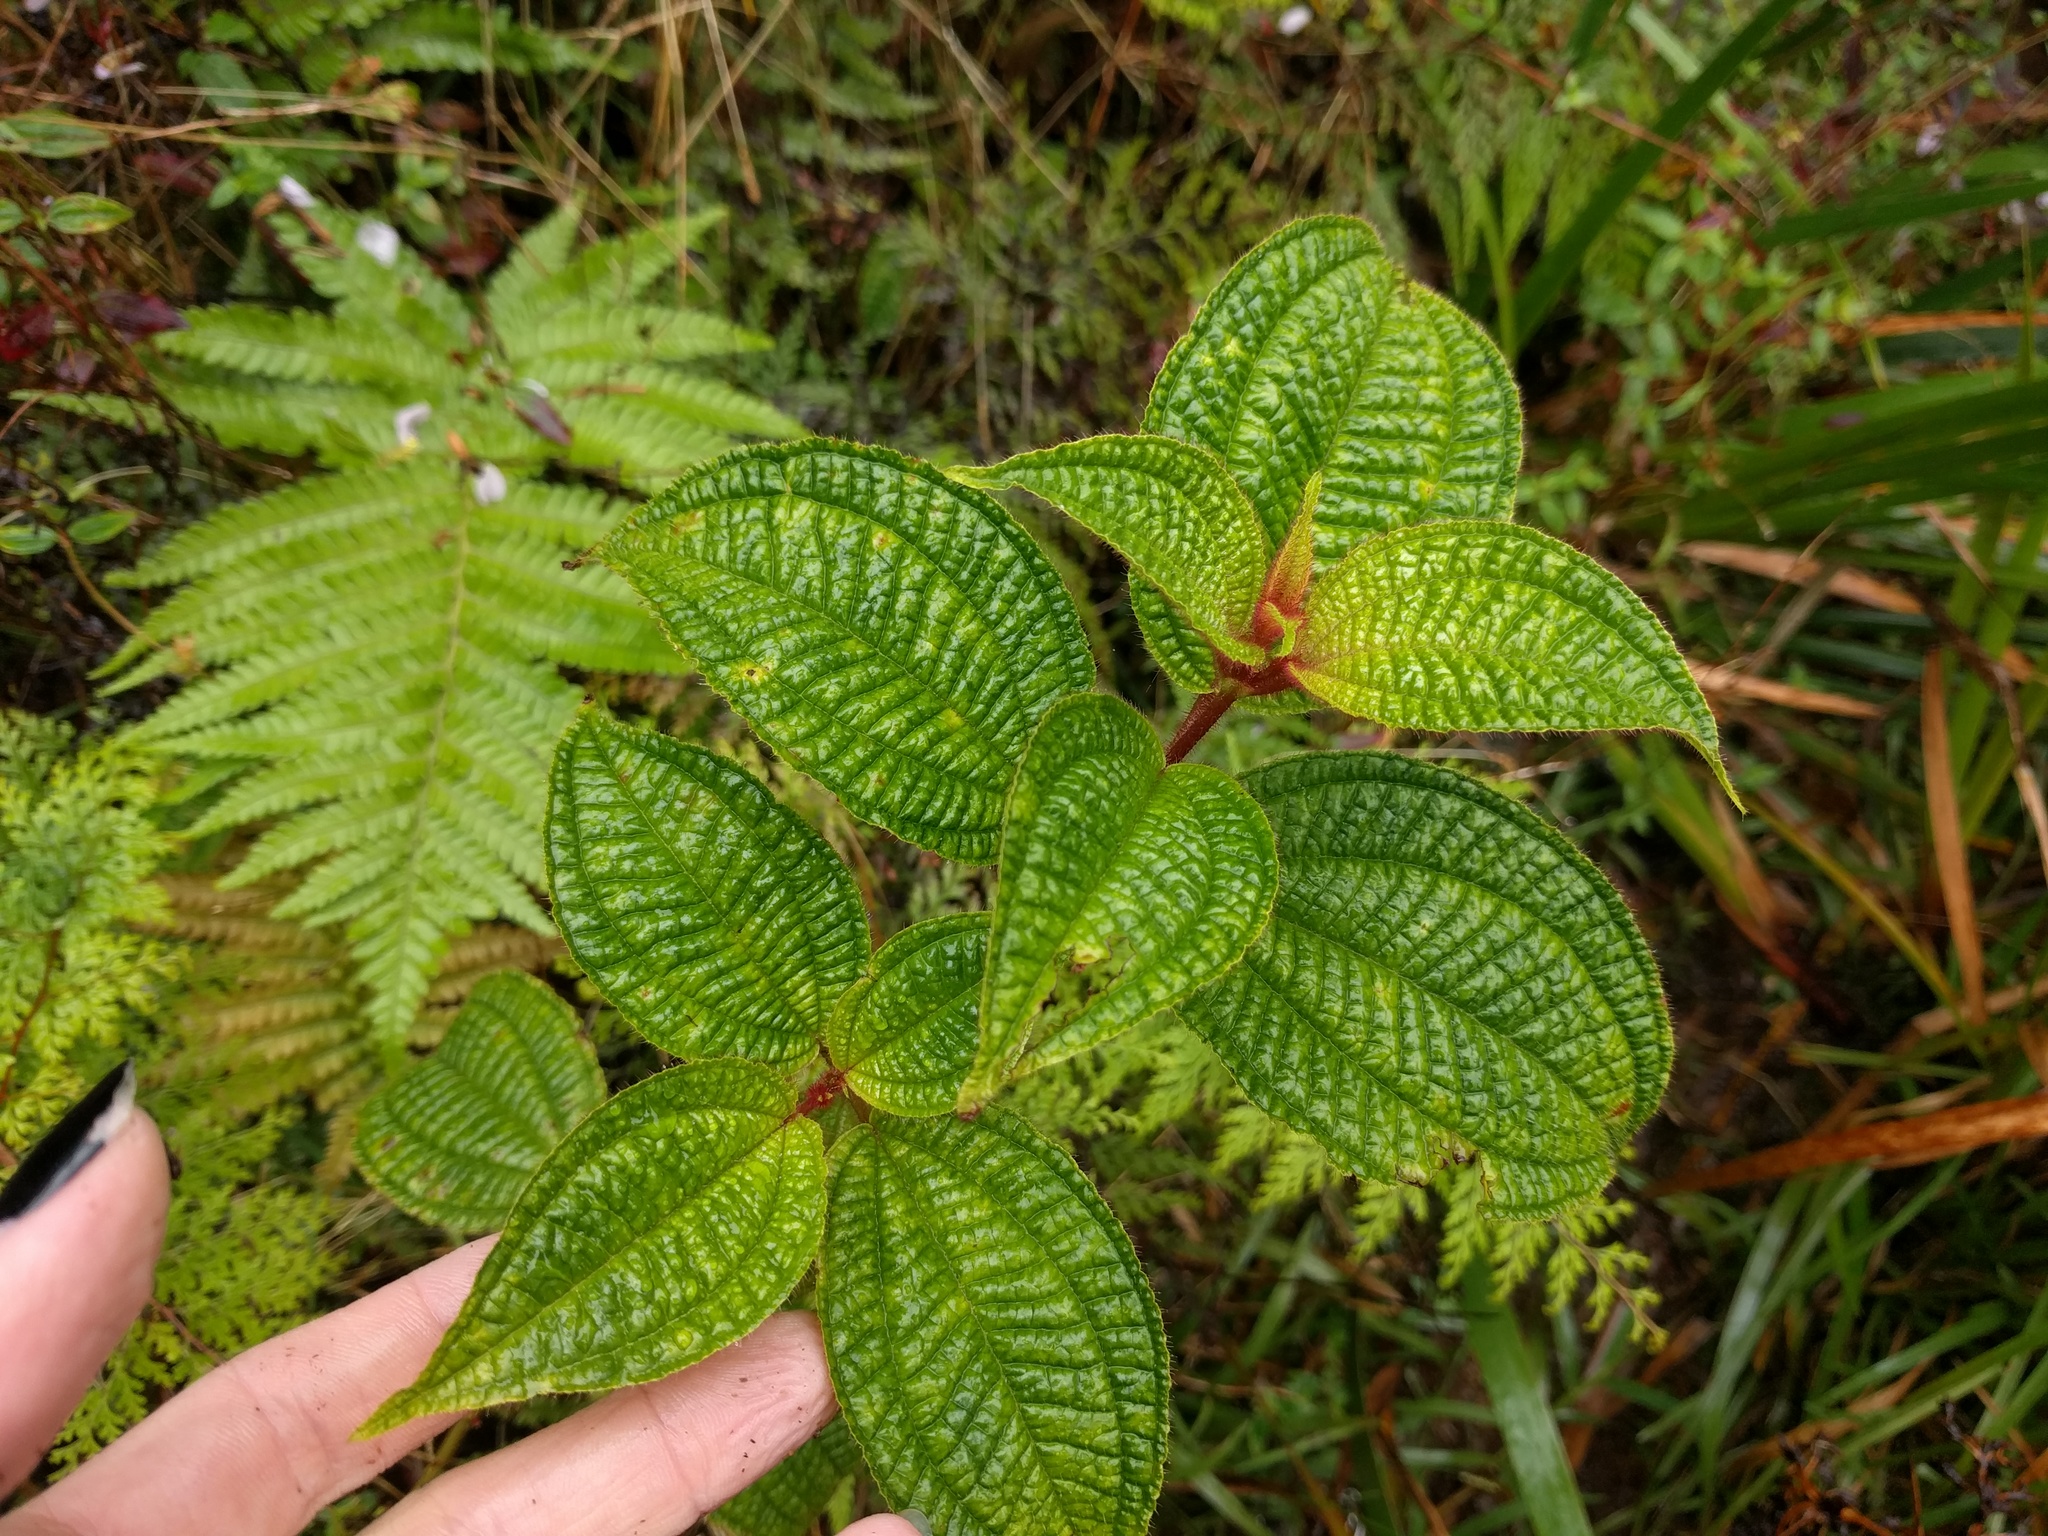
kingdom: Plantae
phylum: Tracheophyta
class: Magnoliopsida
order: Myrtales
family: Melastomataceae
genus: Miconia
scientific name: Miconia crenata
